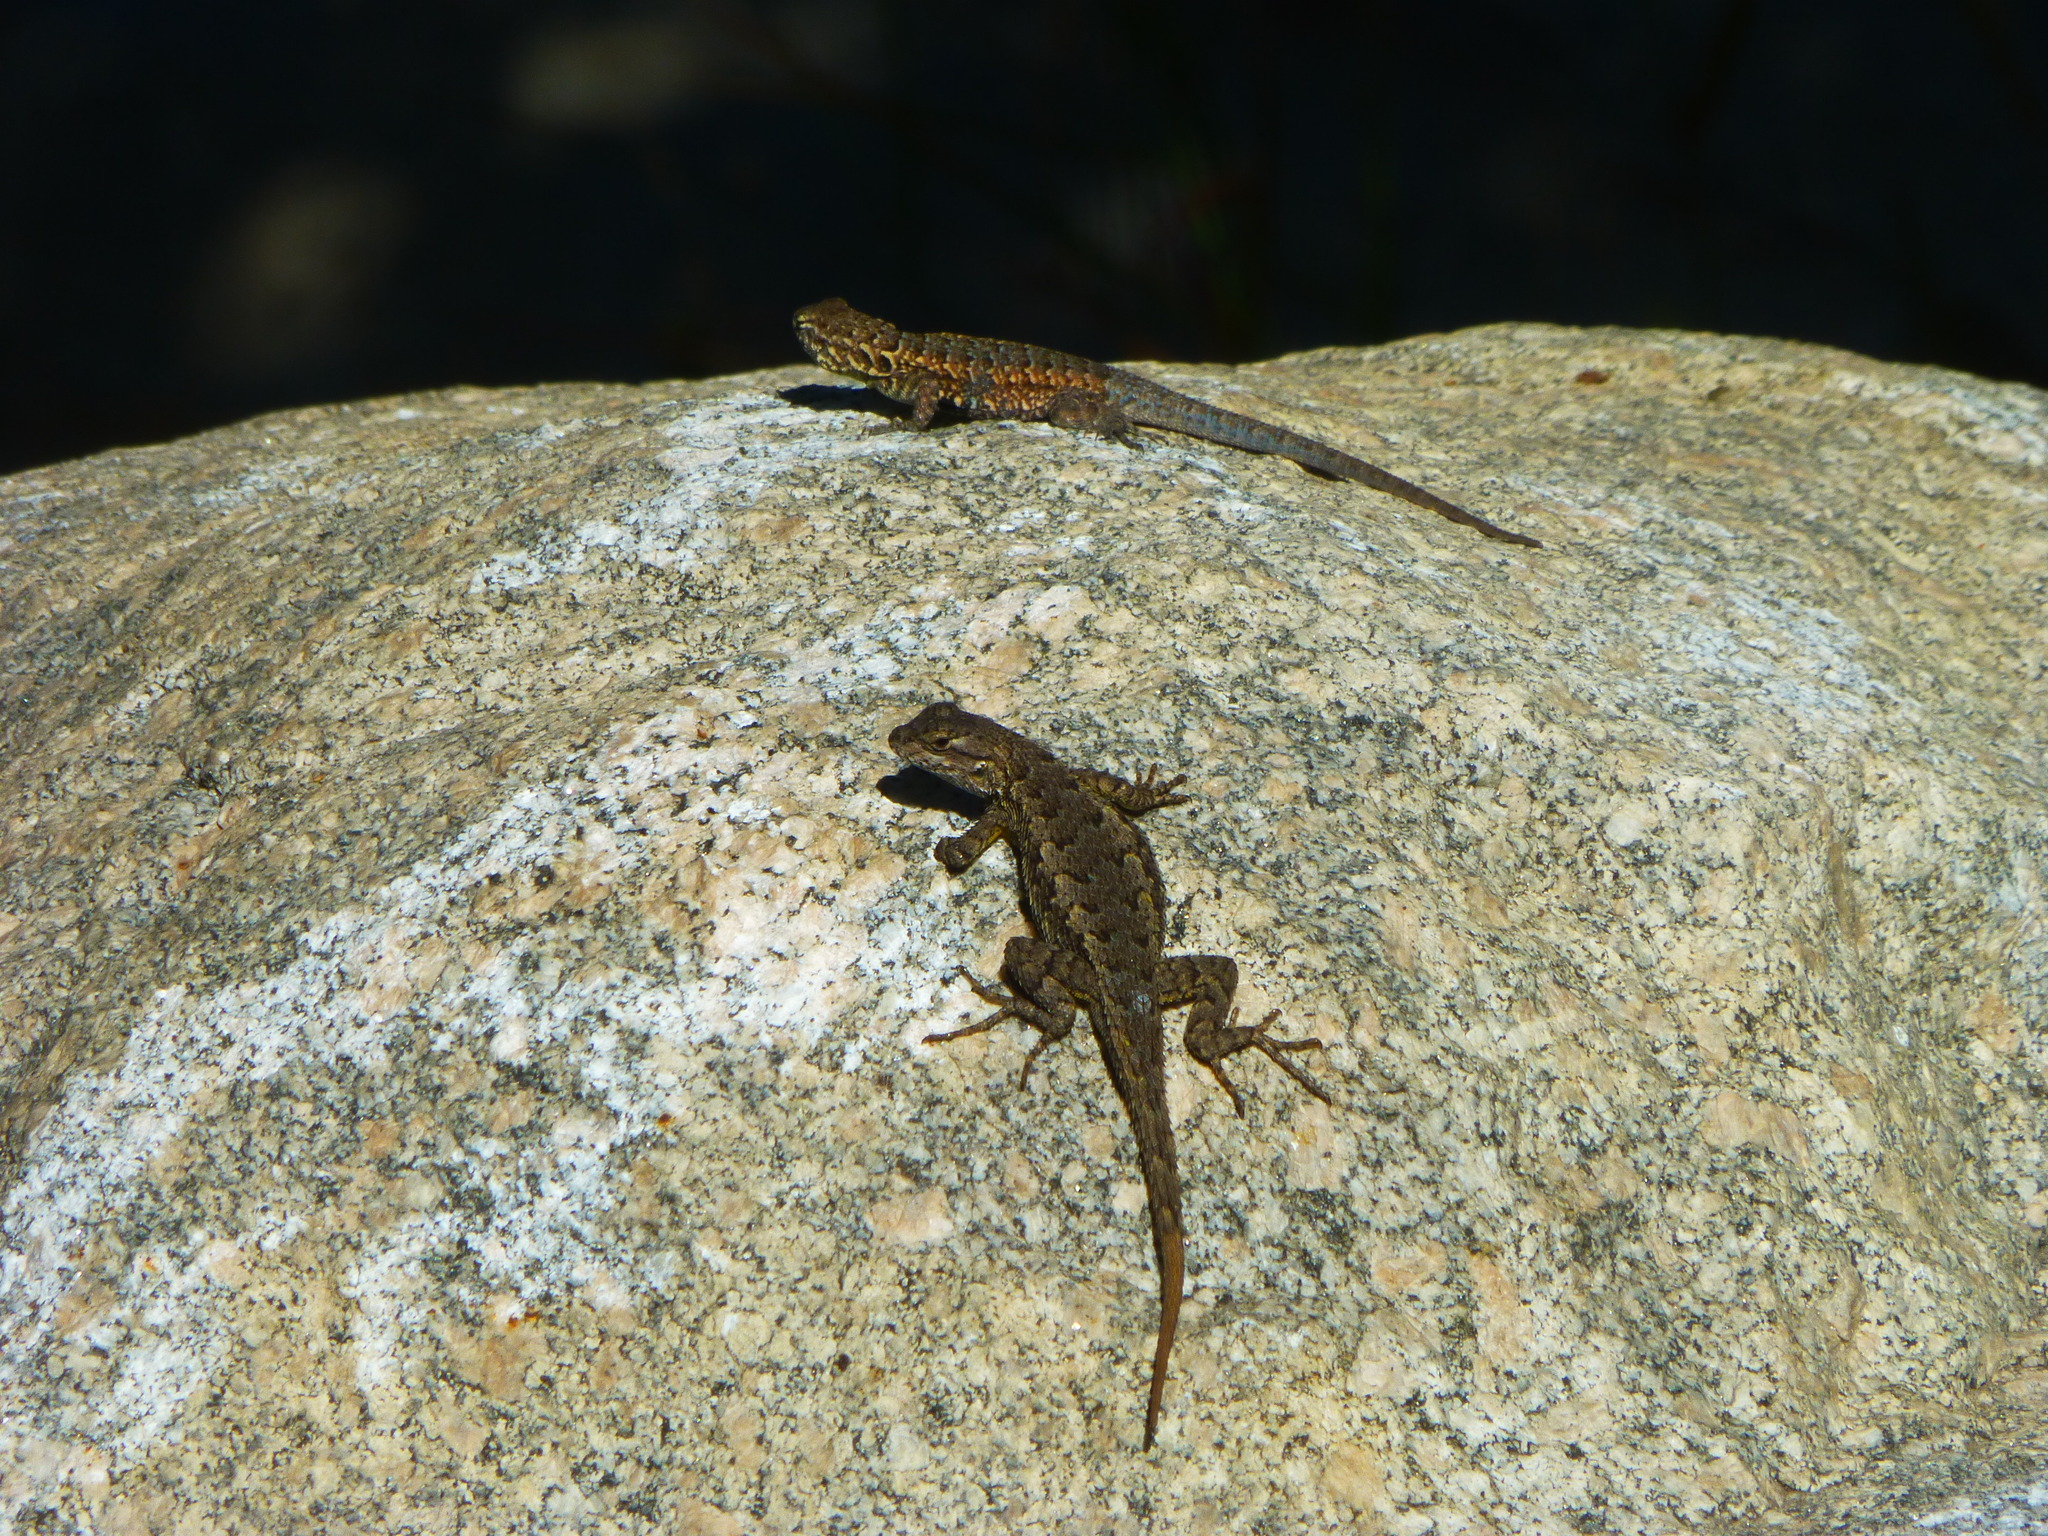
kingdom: Animalia
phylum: Chordata
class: Squamata
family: Phrynosomatidae
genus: Sceloporus
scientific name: Sceloporus occidentalis
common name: Western fence lizard
